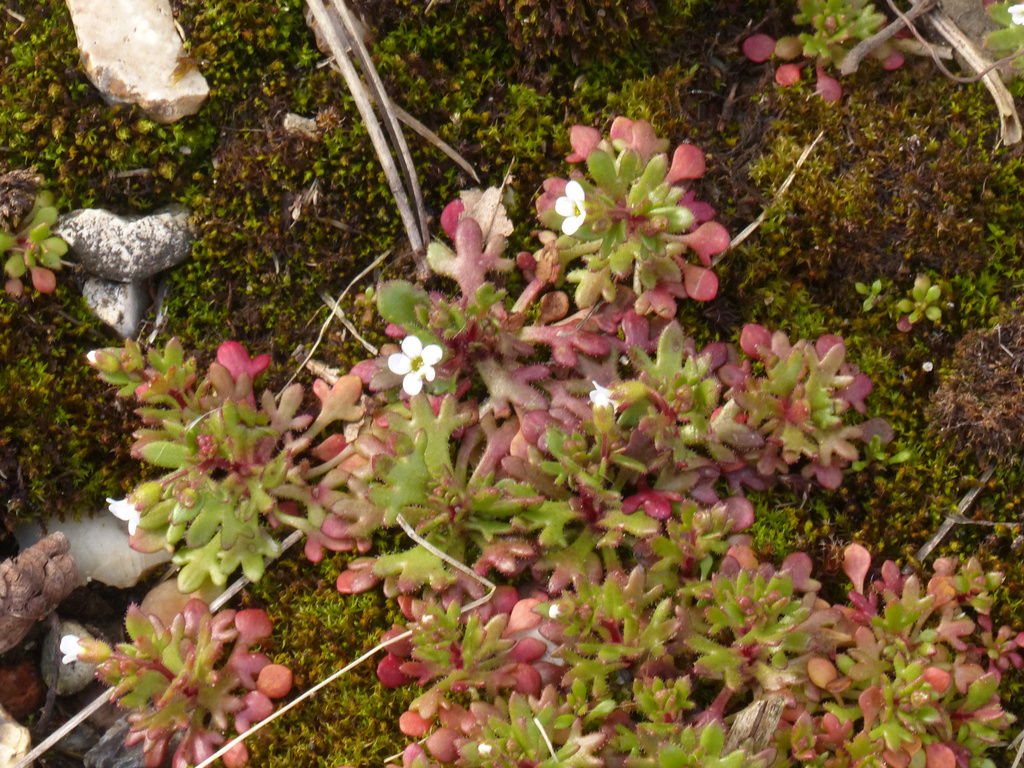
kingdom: Plantae
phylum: Tracheophyta
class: Magnoliopsida
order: Saxifragales
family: Saxifragaceae
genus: Saxifraga
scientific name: Saxifraga tridactylites
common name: Rue-leaved saxifrage
